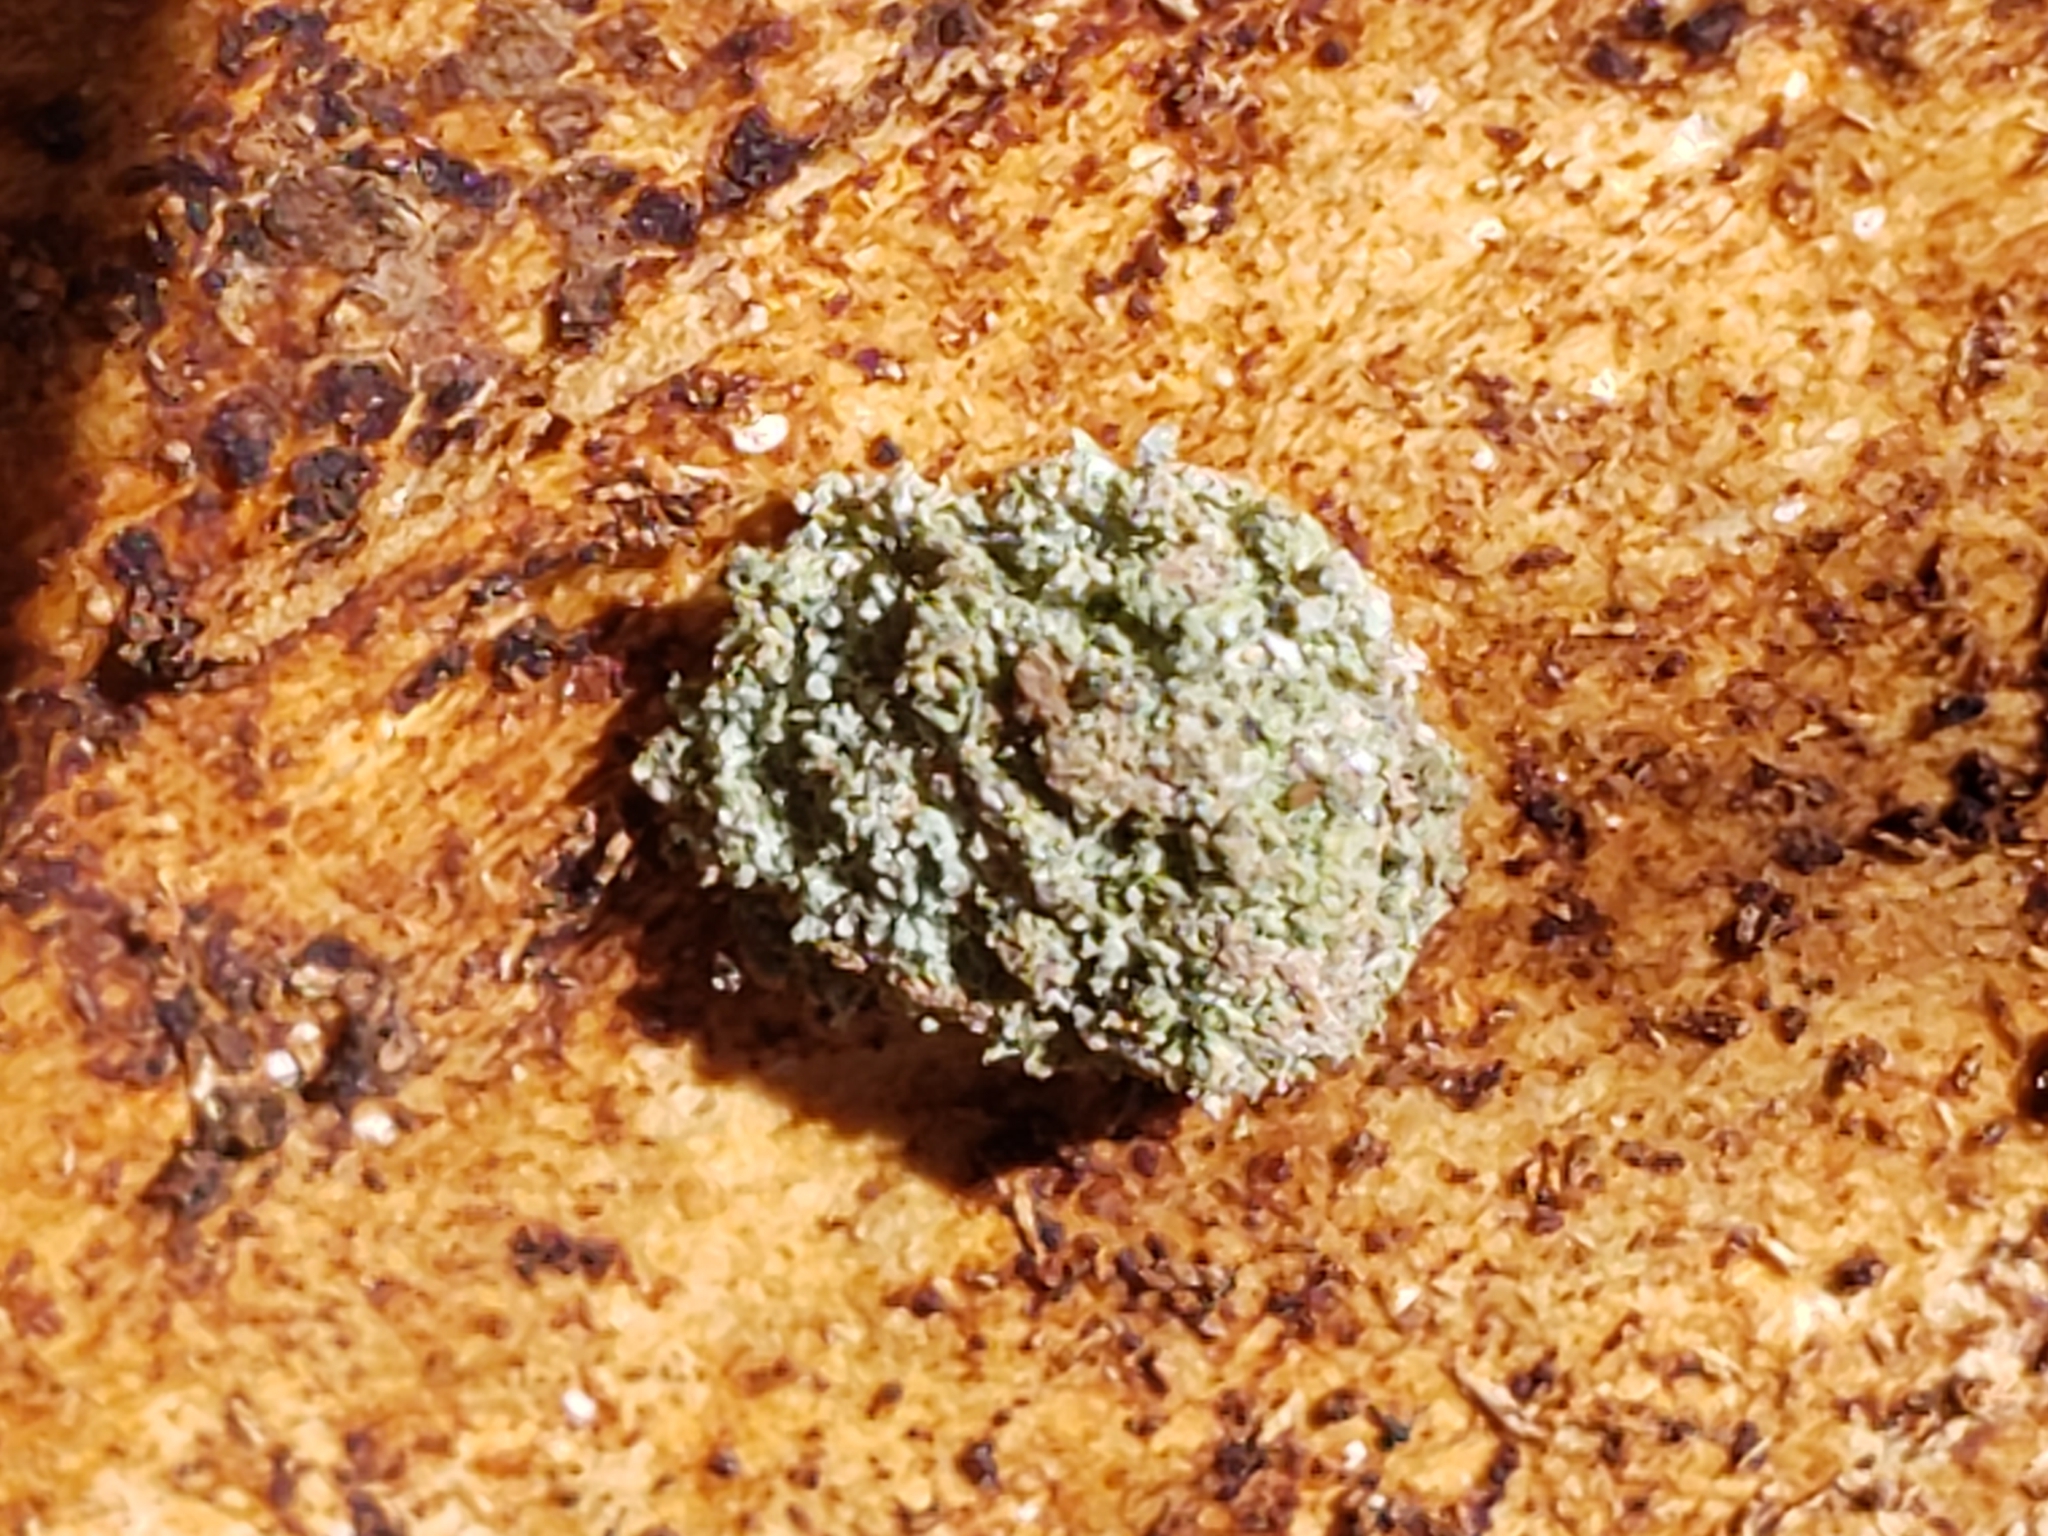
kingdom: Animalia
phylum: Arthropoda
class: Insecta
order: Neuroptera
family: Chrysopidae
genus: Leucochrysa
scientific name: Leucochrysa pavida
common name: Lichen-carrying green lacewing
